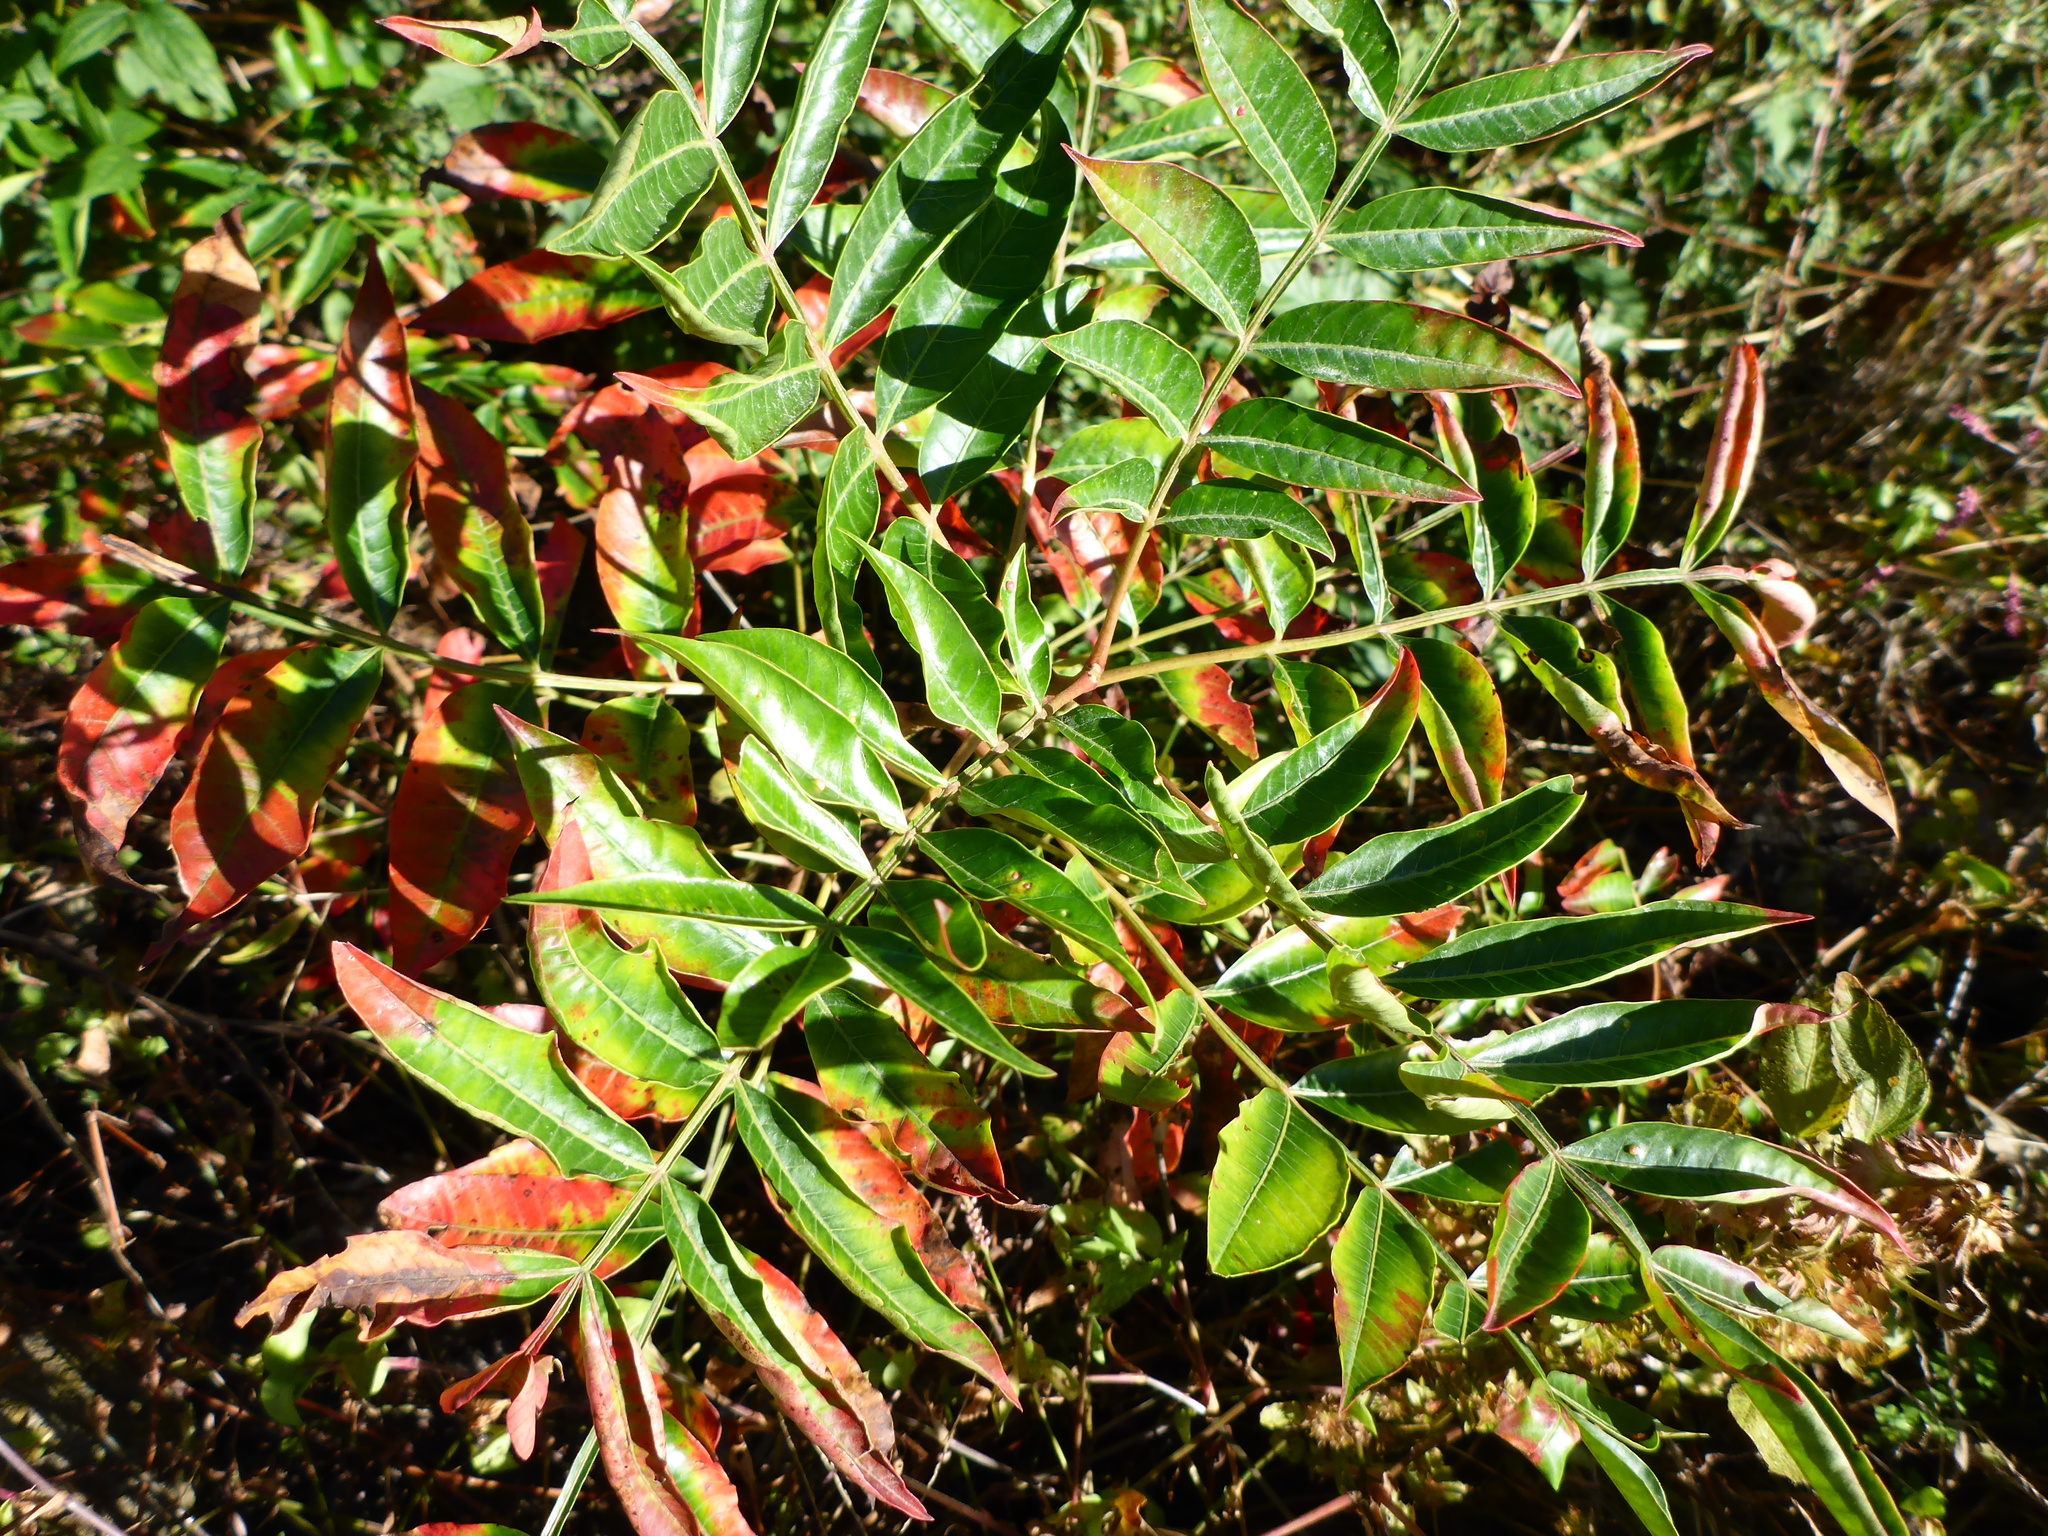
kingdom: Plantae
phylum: Tracheophyta
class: Magnoliopsida
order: Sapindales
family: Anacardiaceae
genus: Rhus
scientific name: Rhus copallina
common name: Shining sumac
